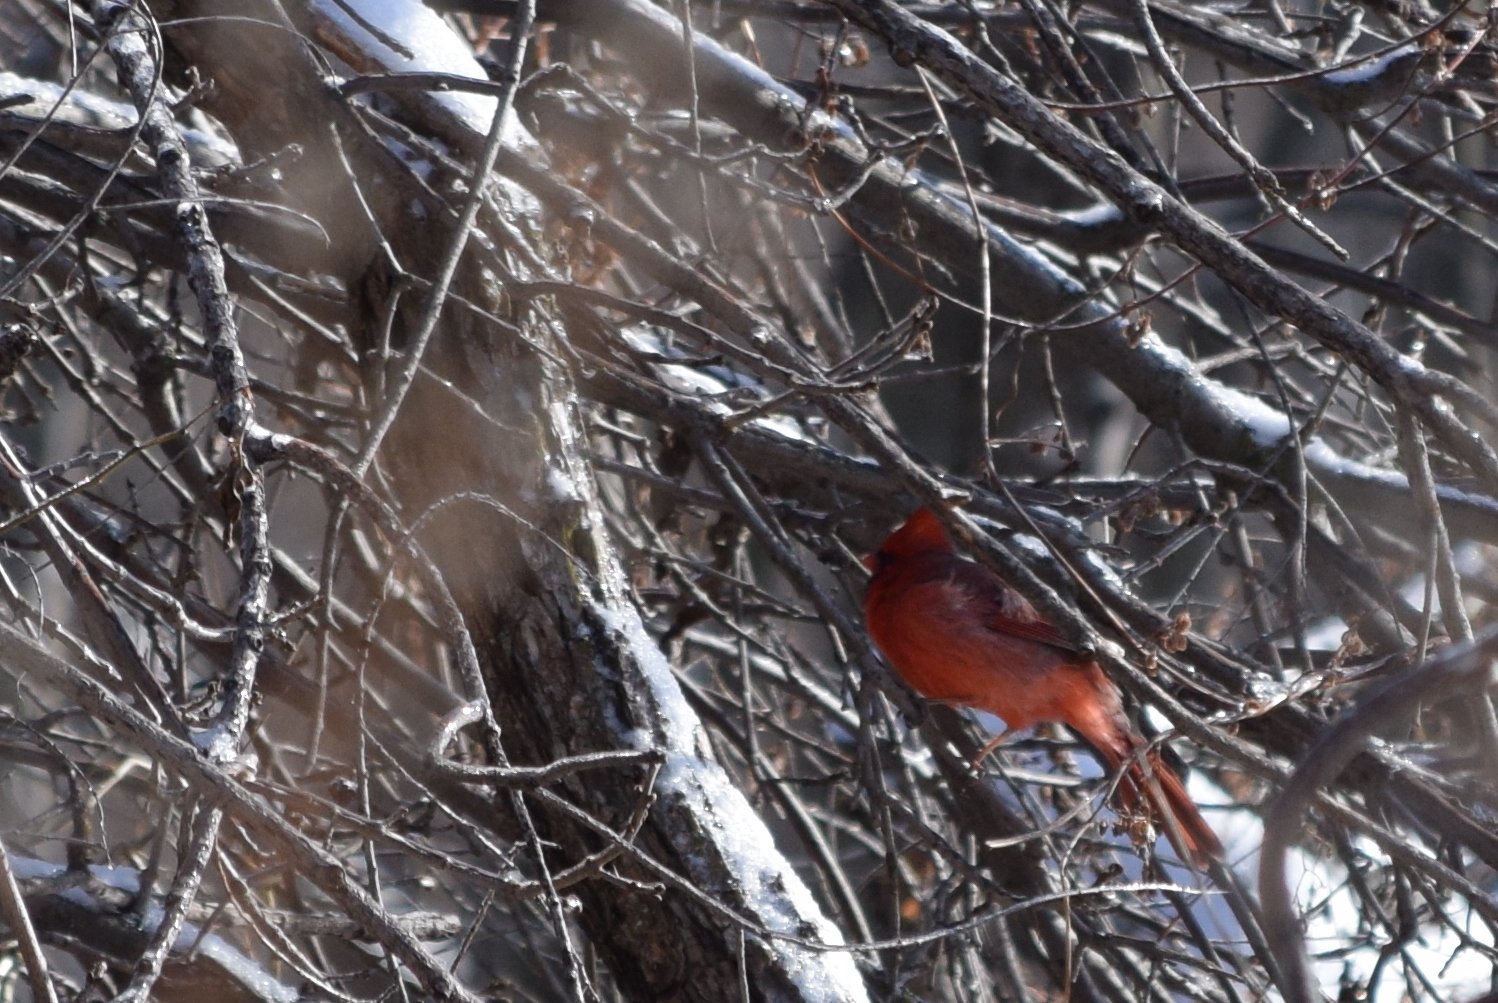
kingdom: Animalia
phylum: Chordata
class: Aves
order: Passeriformes
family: Cardinalidae
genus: Cardinalis
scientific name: Cardinalis cardinalis
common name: Northern cardinal
